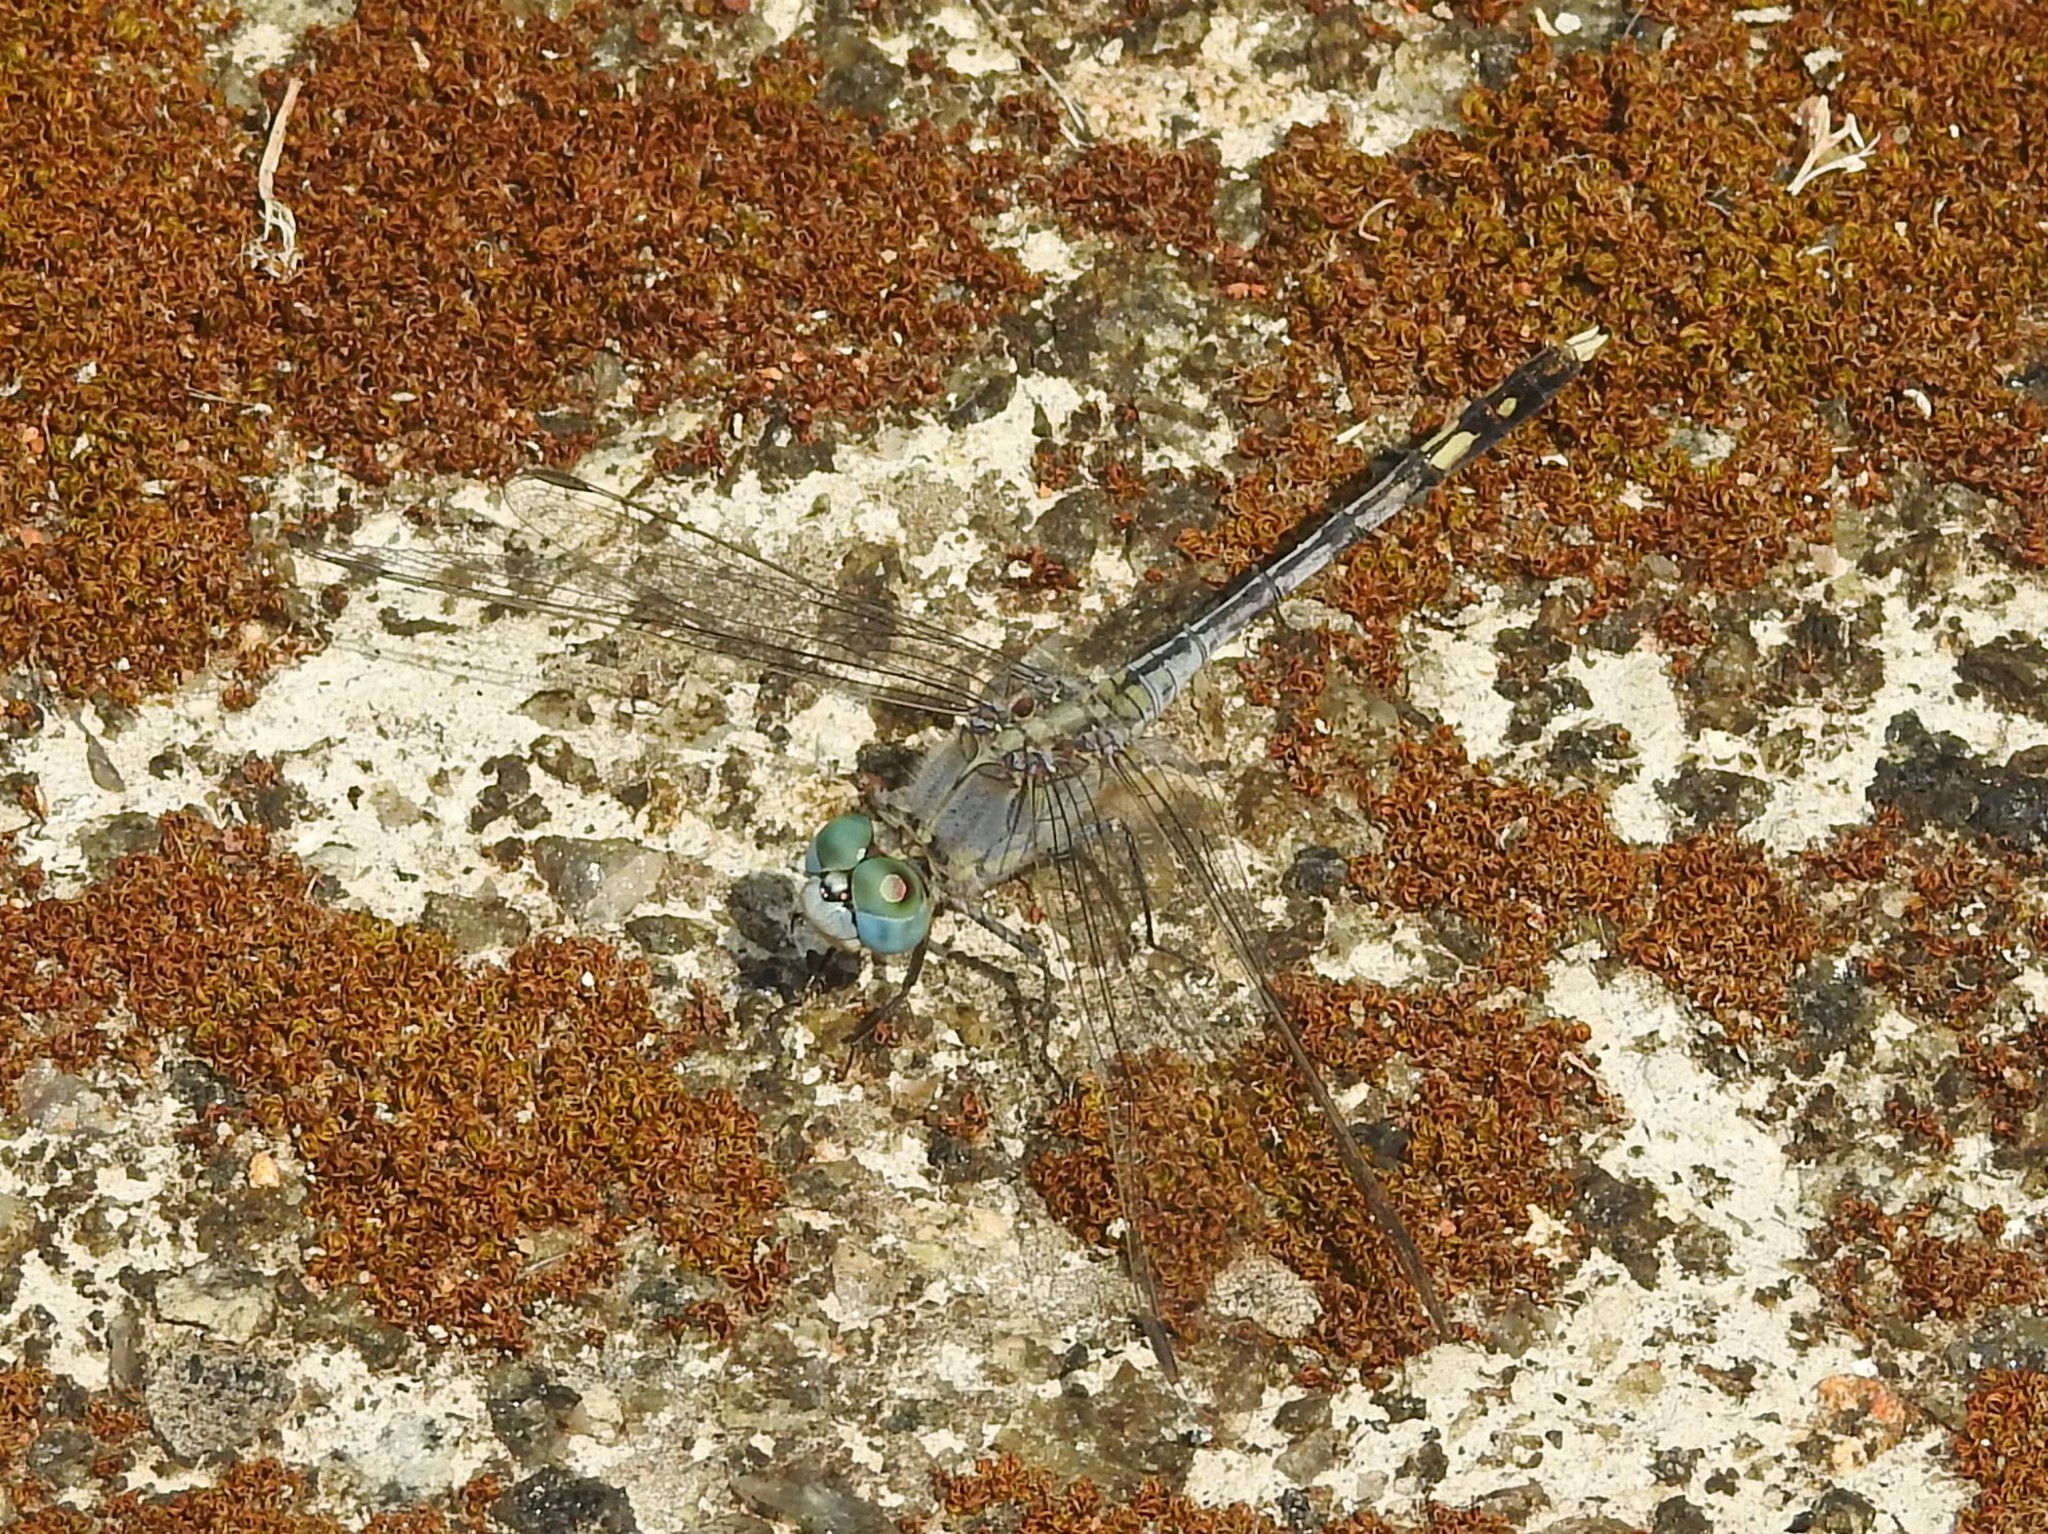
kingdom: Animalia
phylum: Arthropoda
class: Insecta
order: Odonata
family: Libellulidae
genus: Diplacodes
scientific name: Diplacodes trivialis
